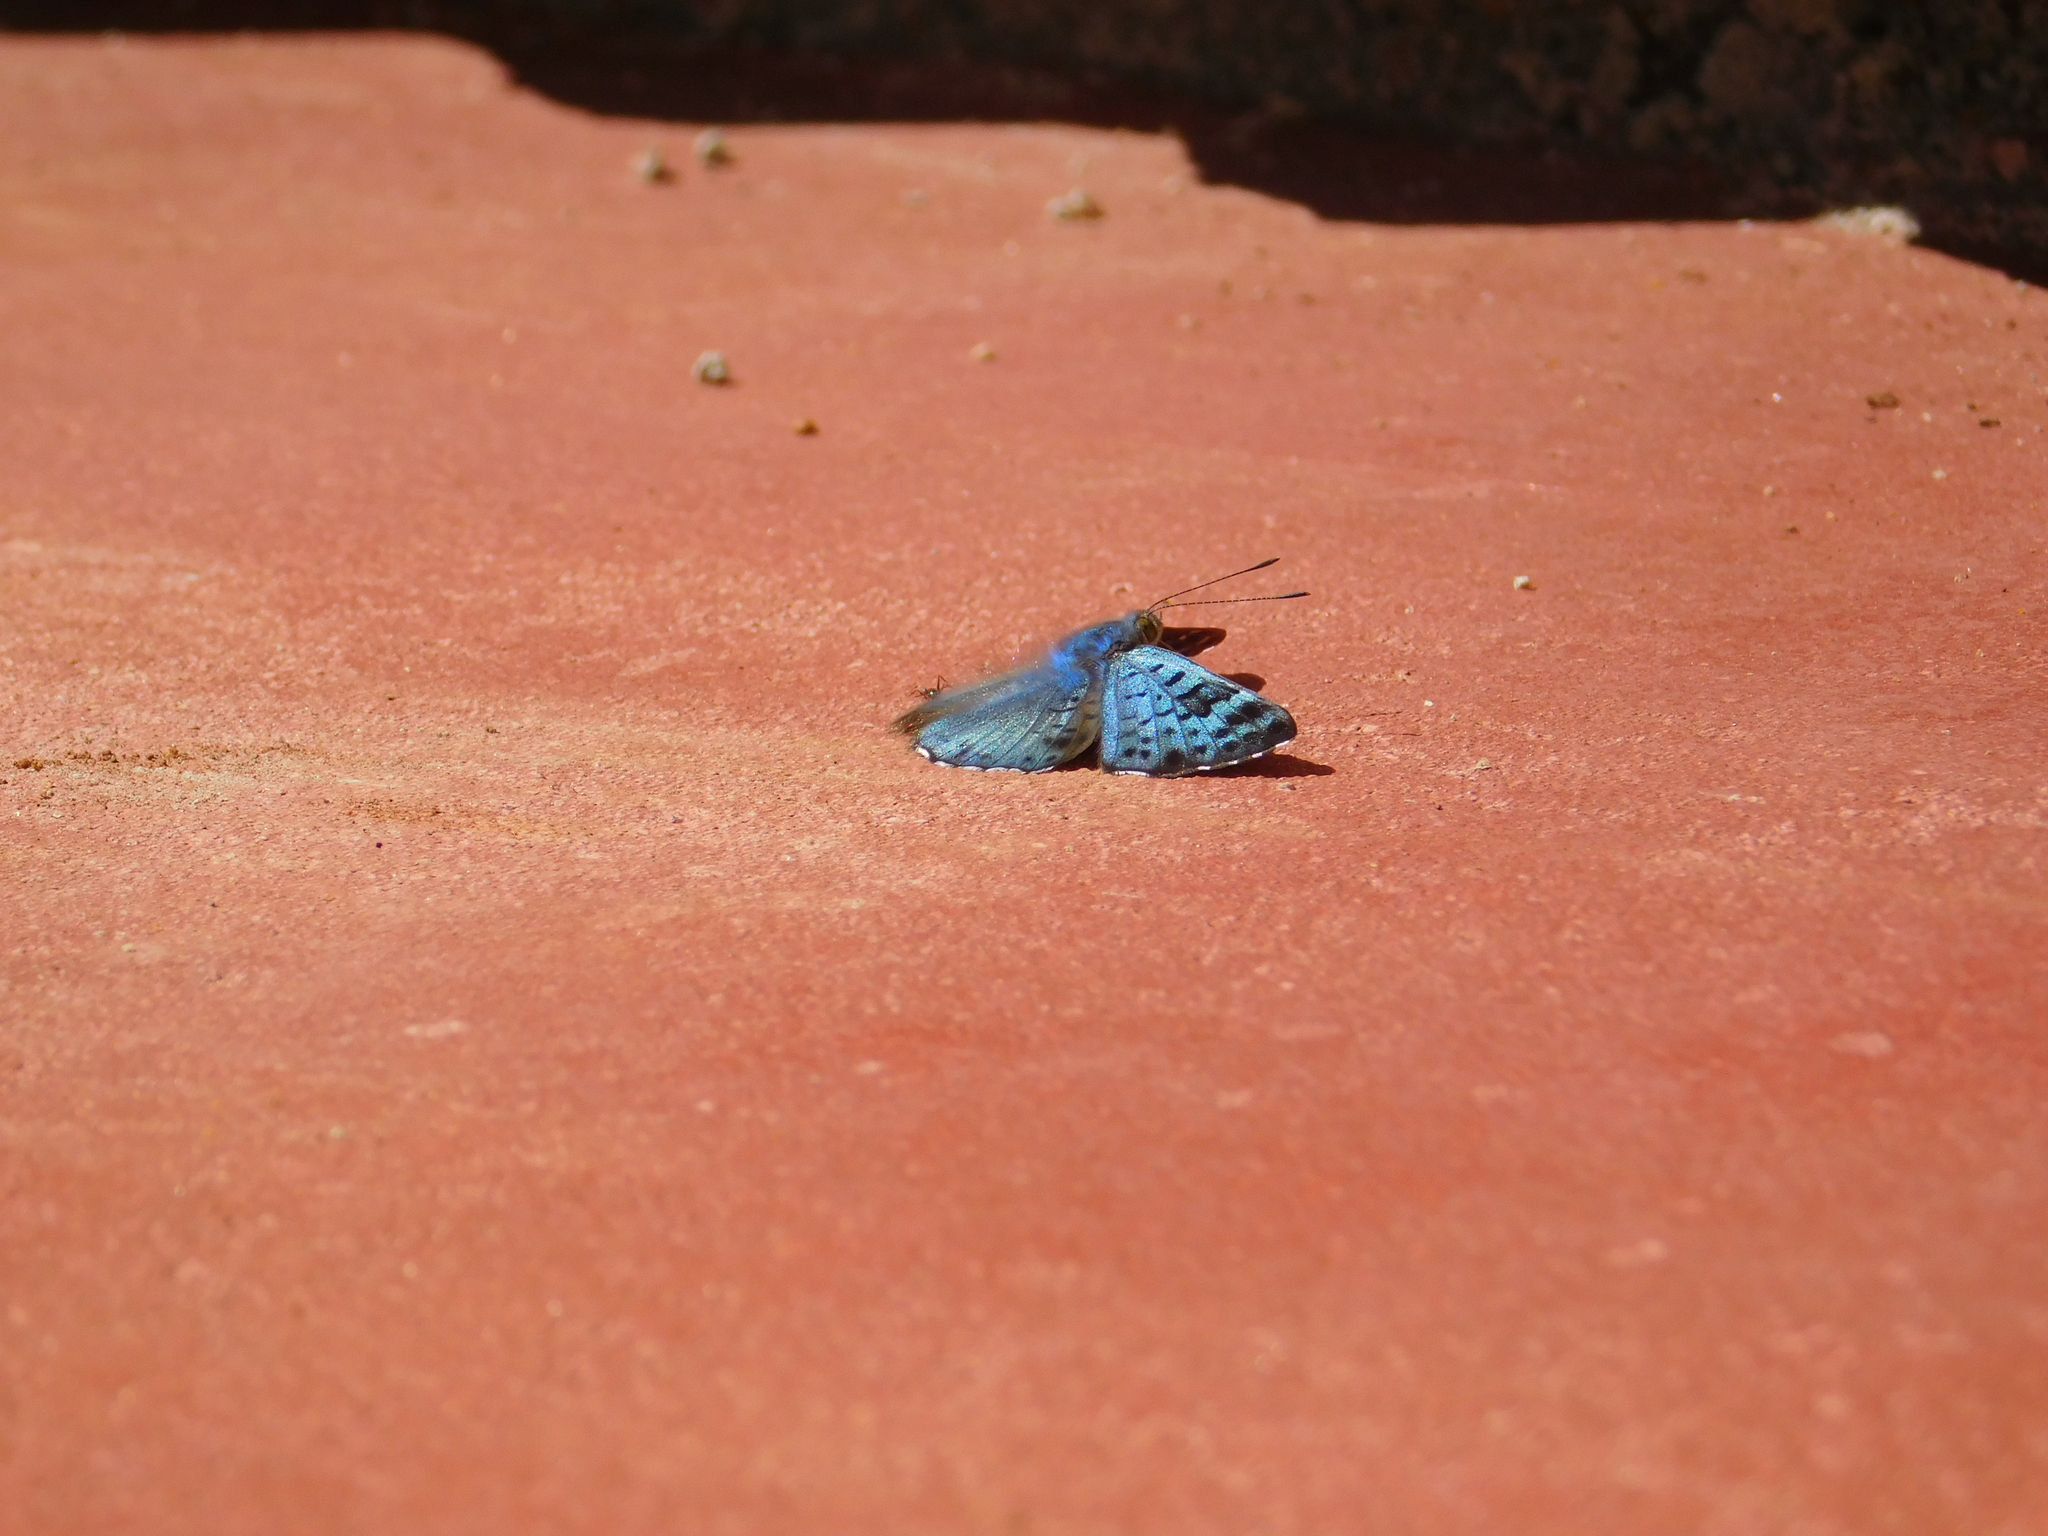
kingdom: Animalia
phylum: Arthropoda
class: Insecta
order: Lepidoptera
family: Riodinidae
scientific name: Riodinidae
